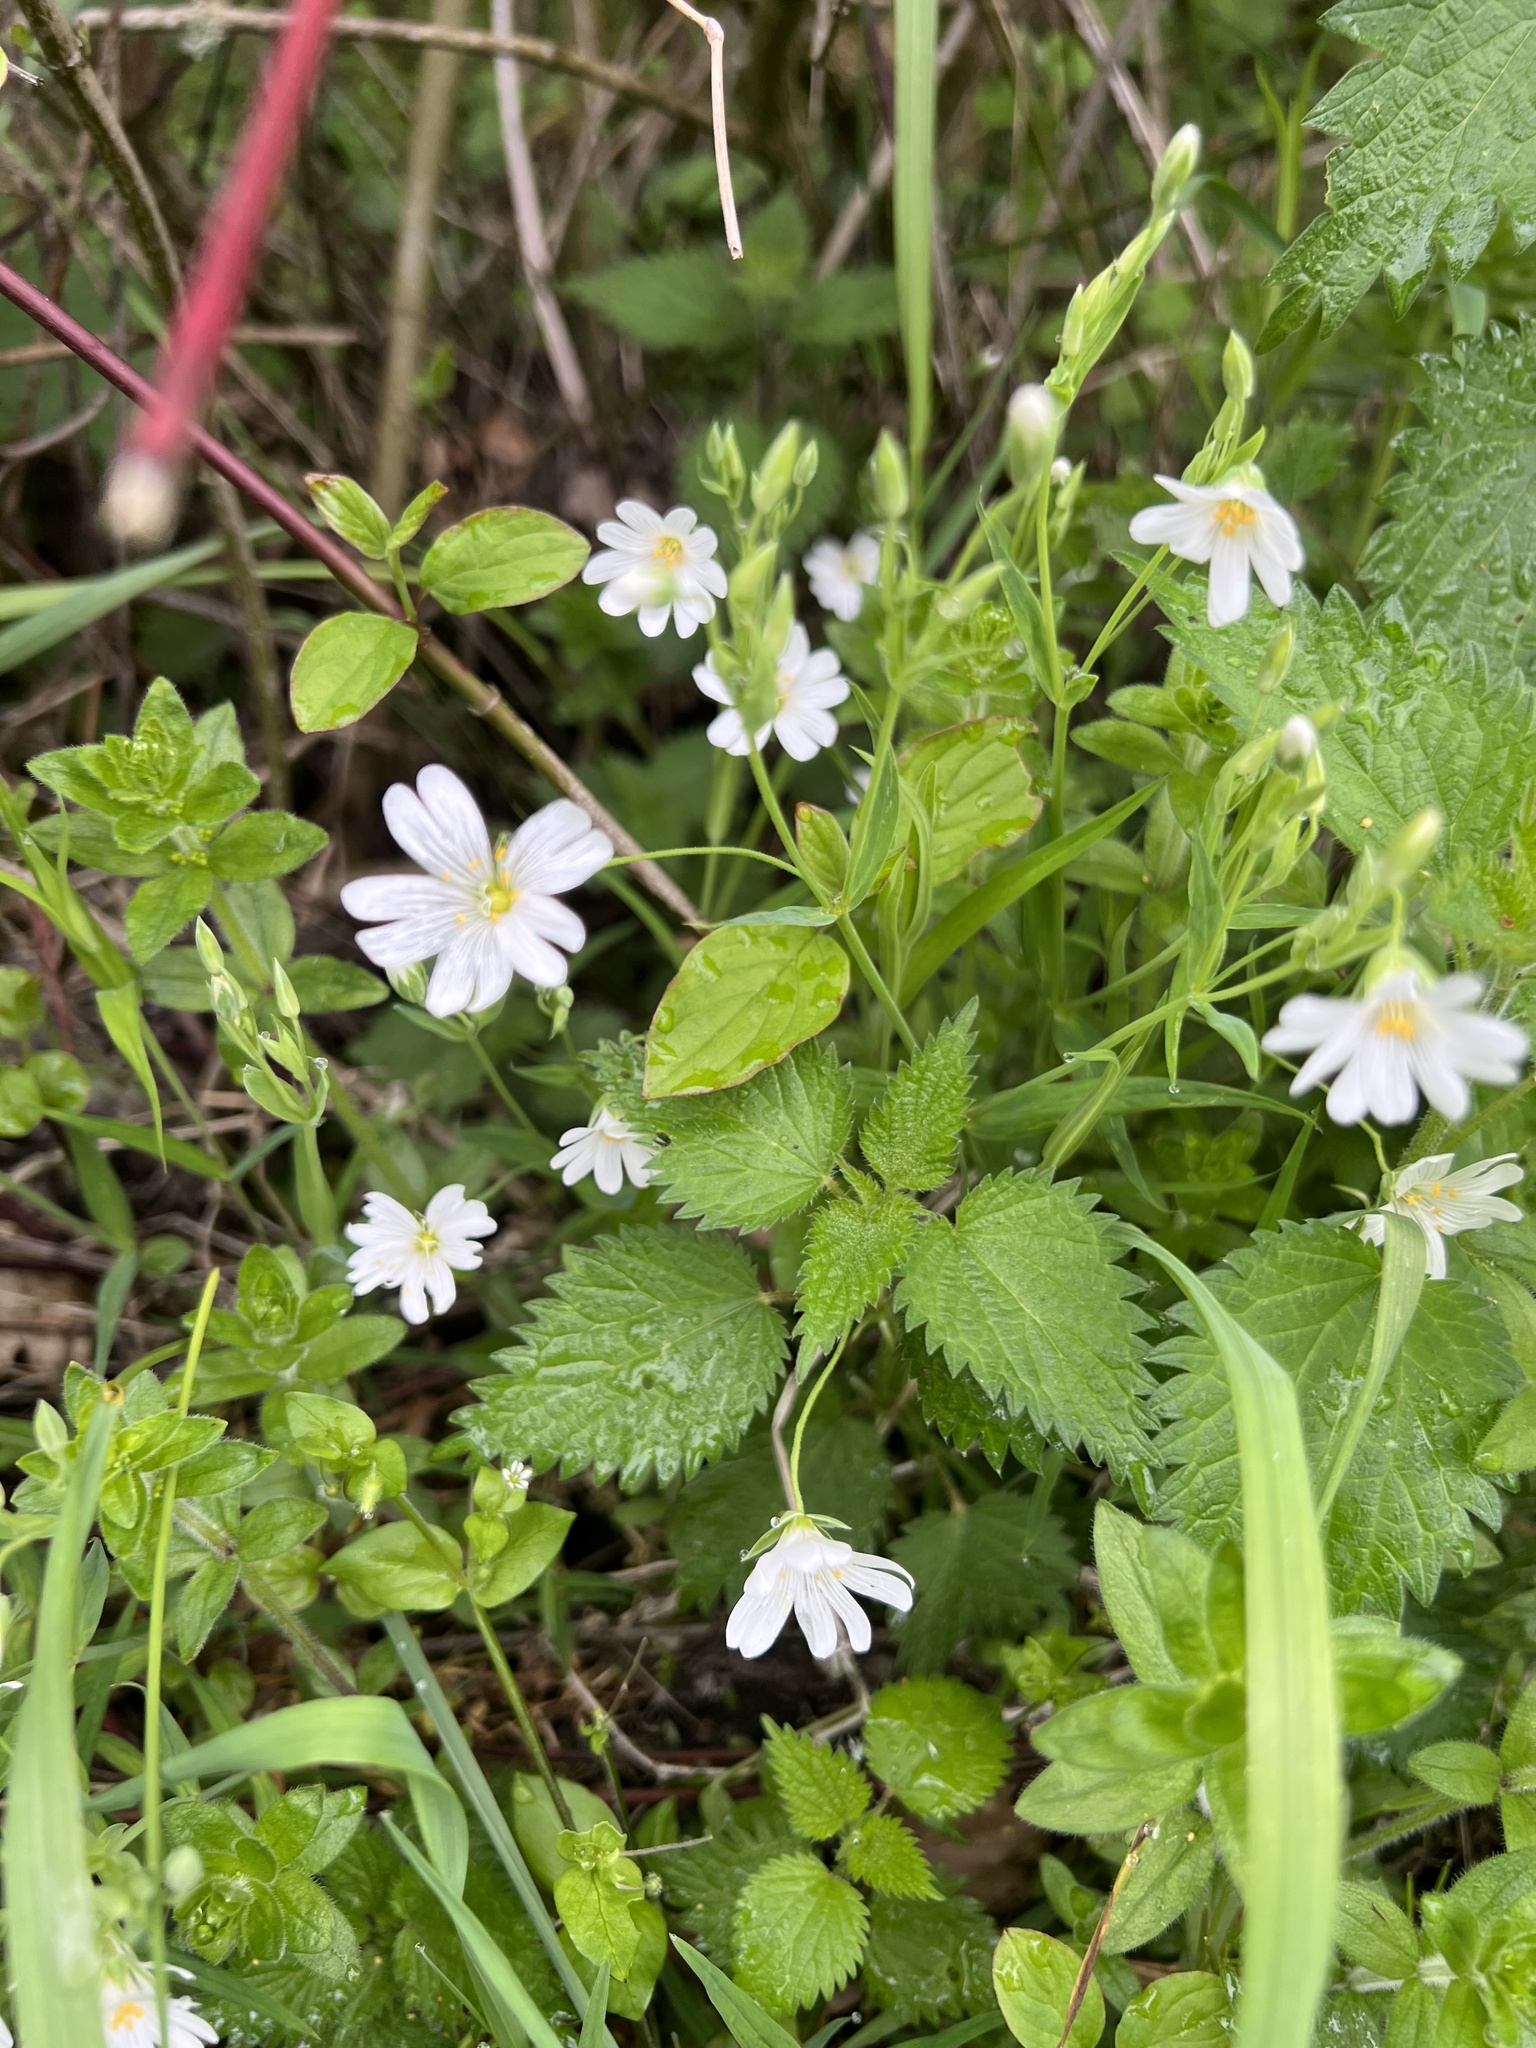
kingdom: Plantae
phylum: Tracheophyta
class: Magnoliopsida
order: Caryophyllales
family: Caryophyllaceae
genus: Rabelera
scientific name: Rabelera holostea
